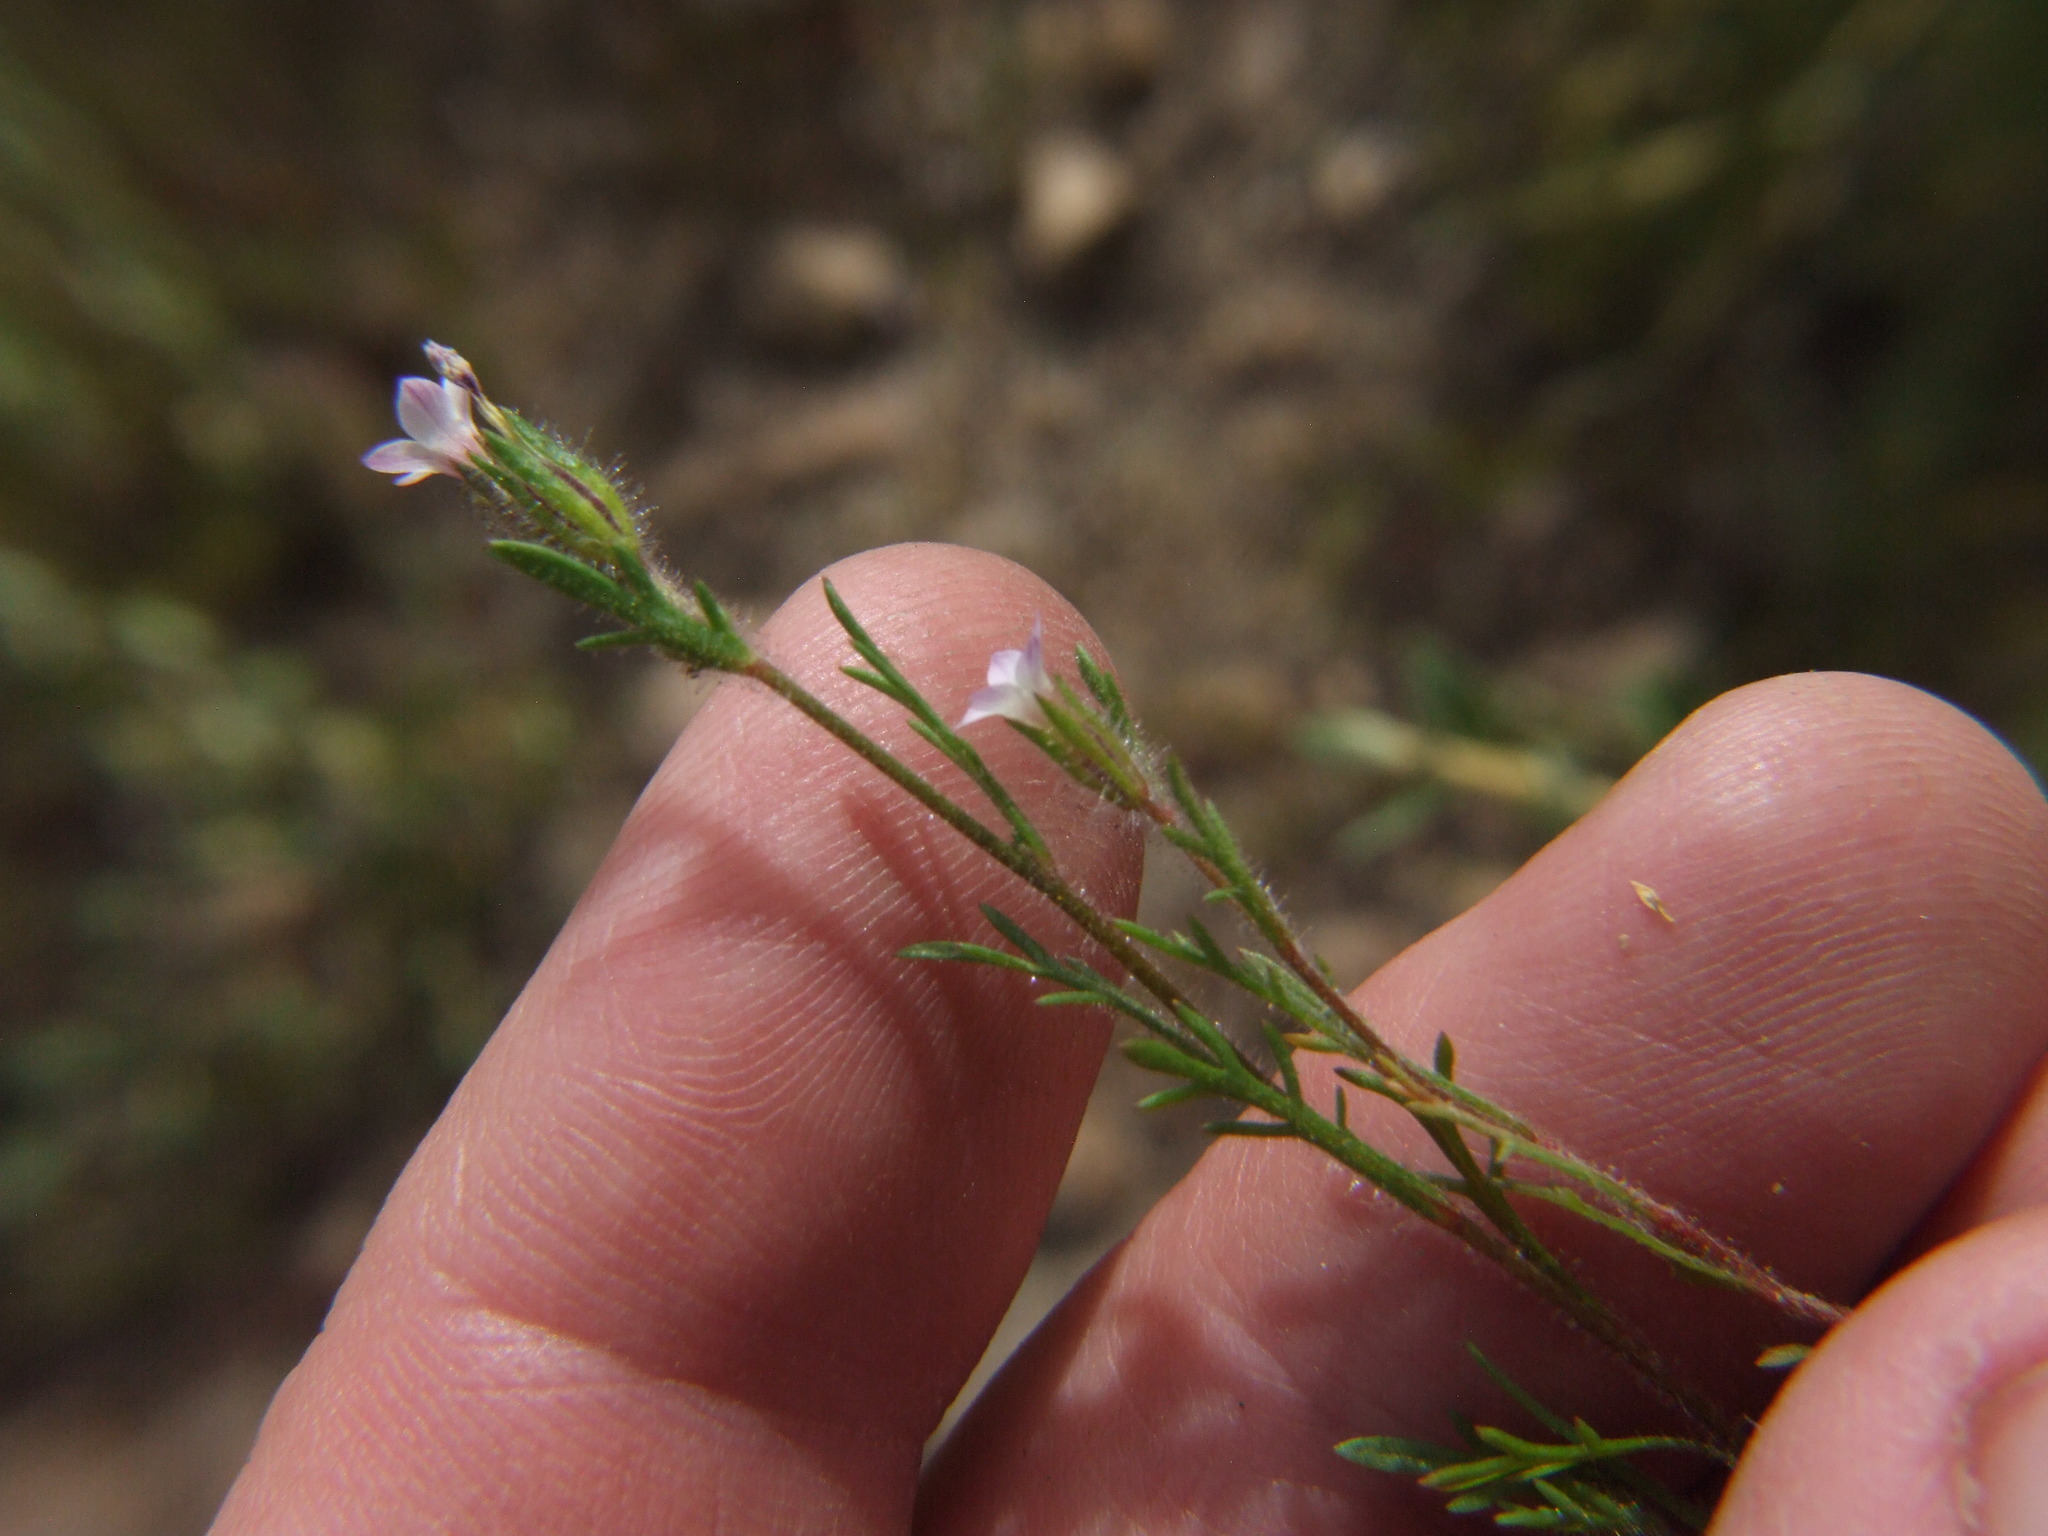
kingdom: Plantae
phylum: Tracheophyta
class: Magnoliopsida
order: Ericales
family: Polemoniaceae
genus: Gilia
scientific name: Gilia laciniata
